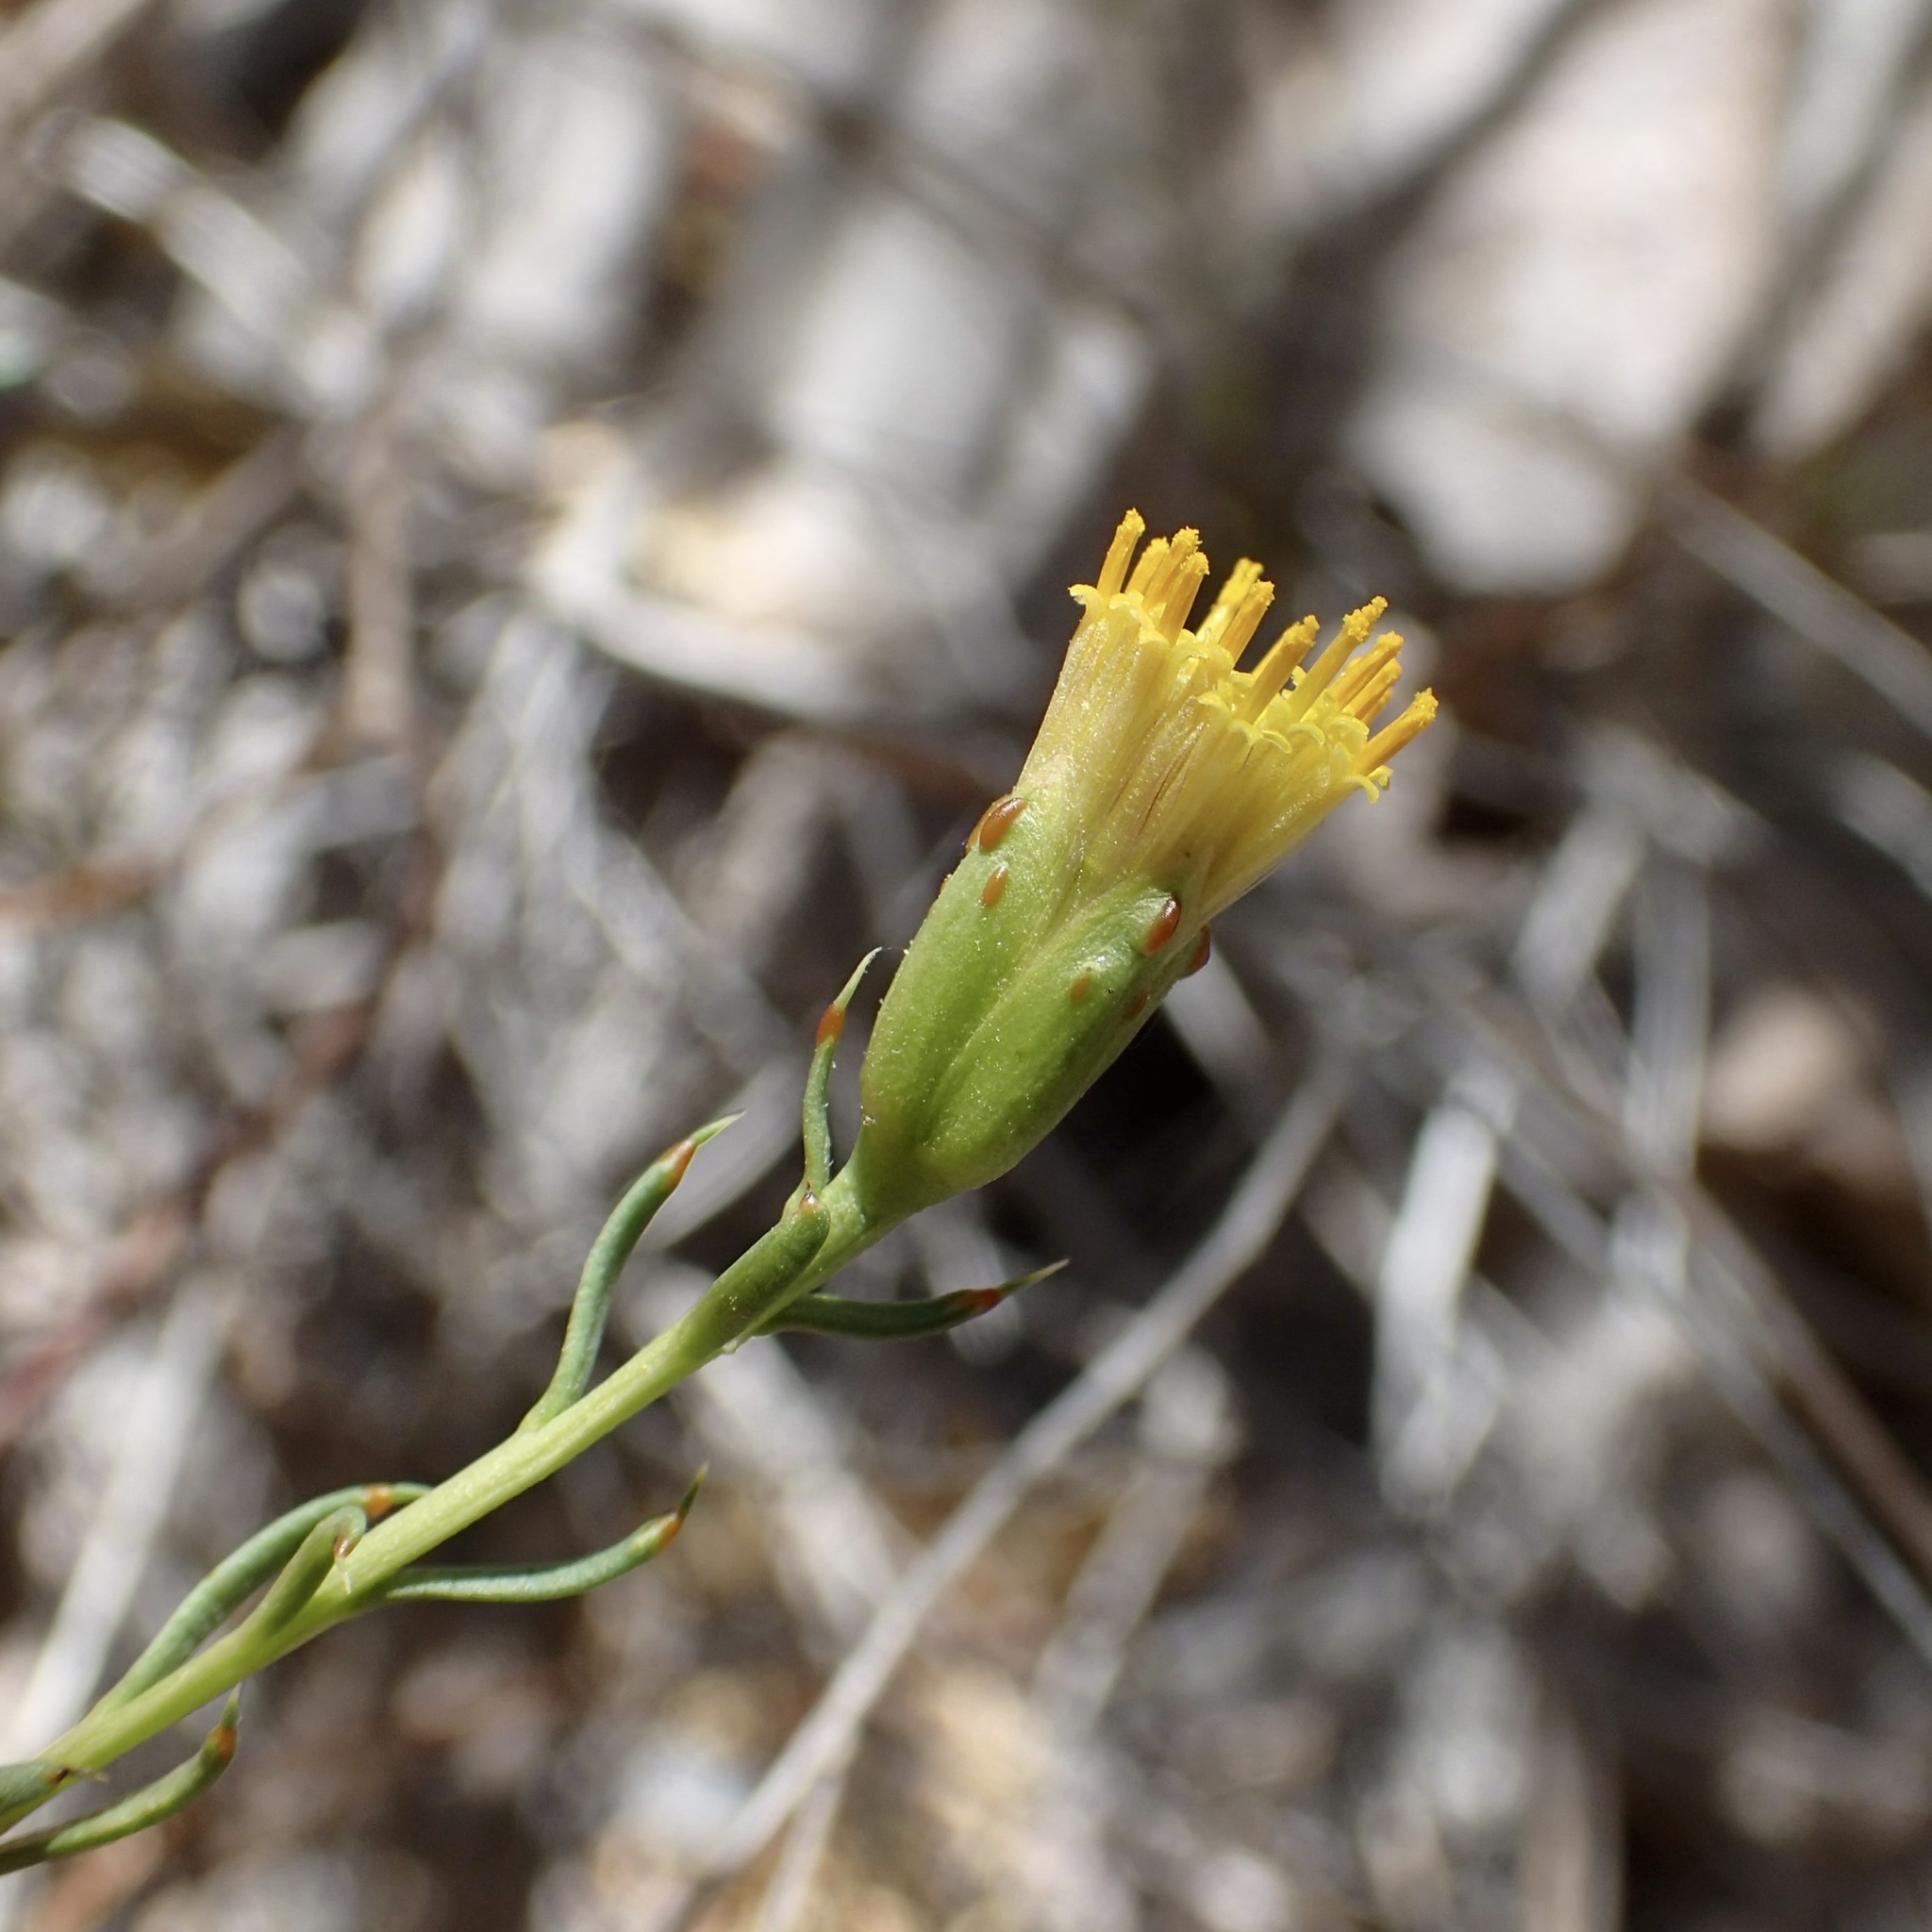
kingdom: Plantae
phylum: Tracheophyta
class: Magnoliopsida
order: Asterales
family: Asteraceae
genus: Bajacalia
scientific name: Bajacalia crassifolia
